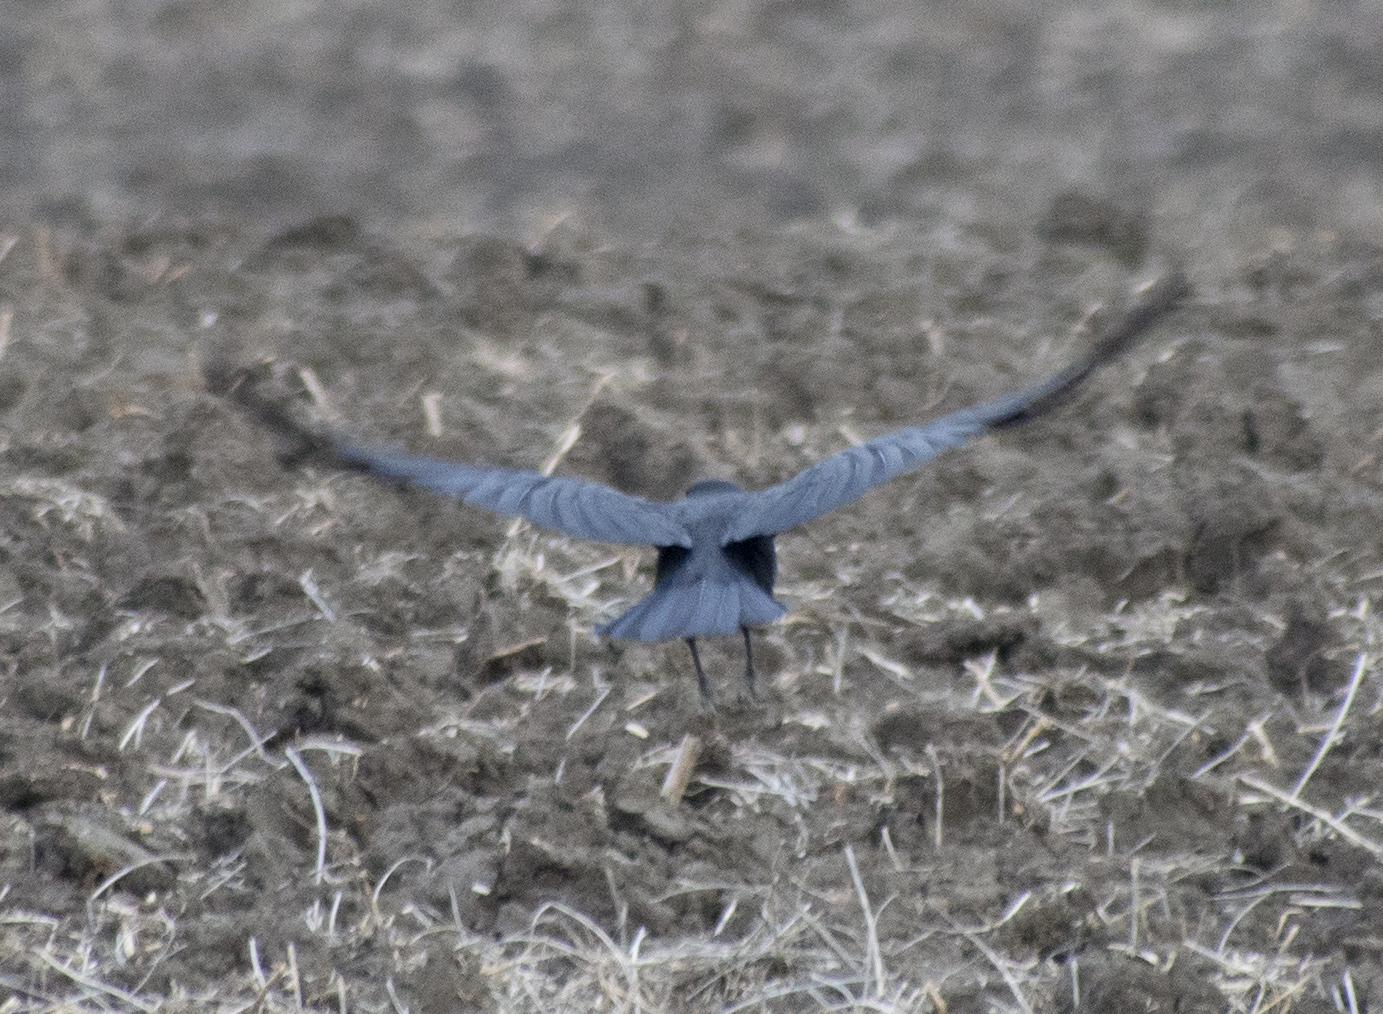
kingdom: Animalia
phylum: Chordata
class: Aves
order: Passeriformes
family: Corvidae
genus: Corvus
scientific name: Corvus brachyrhynchos
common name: American crow
